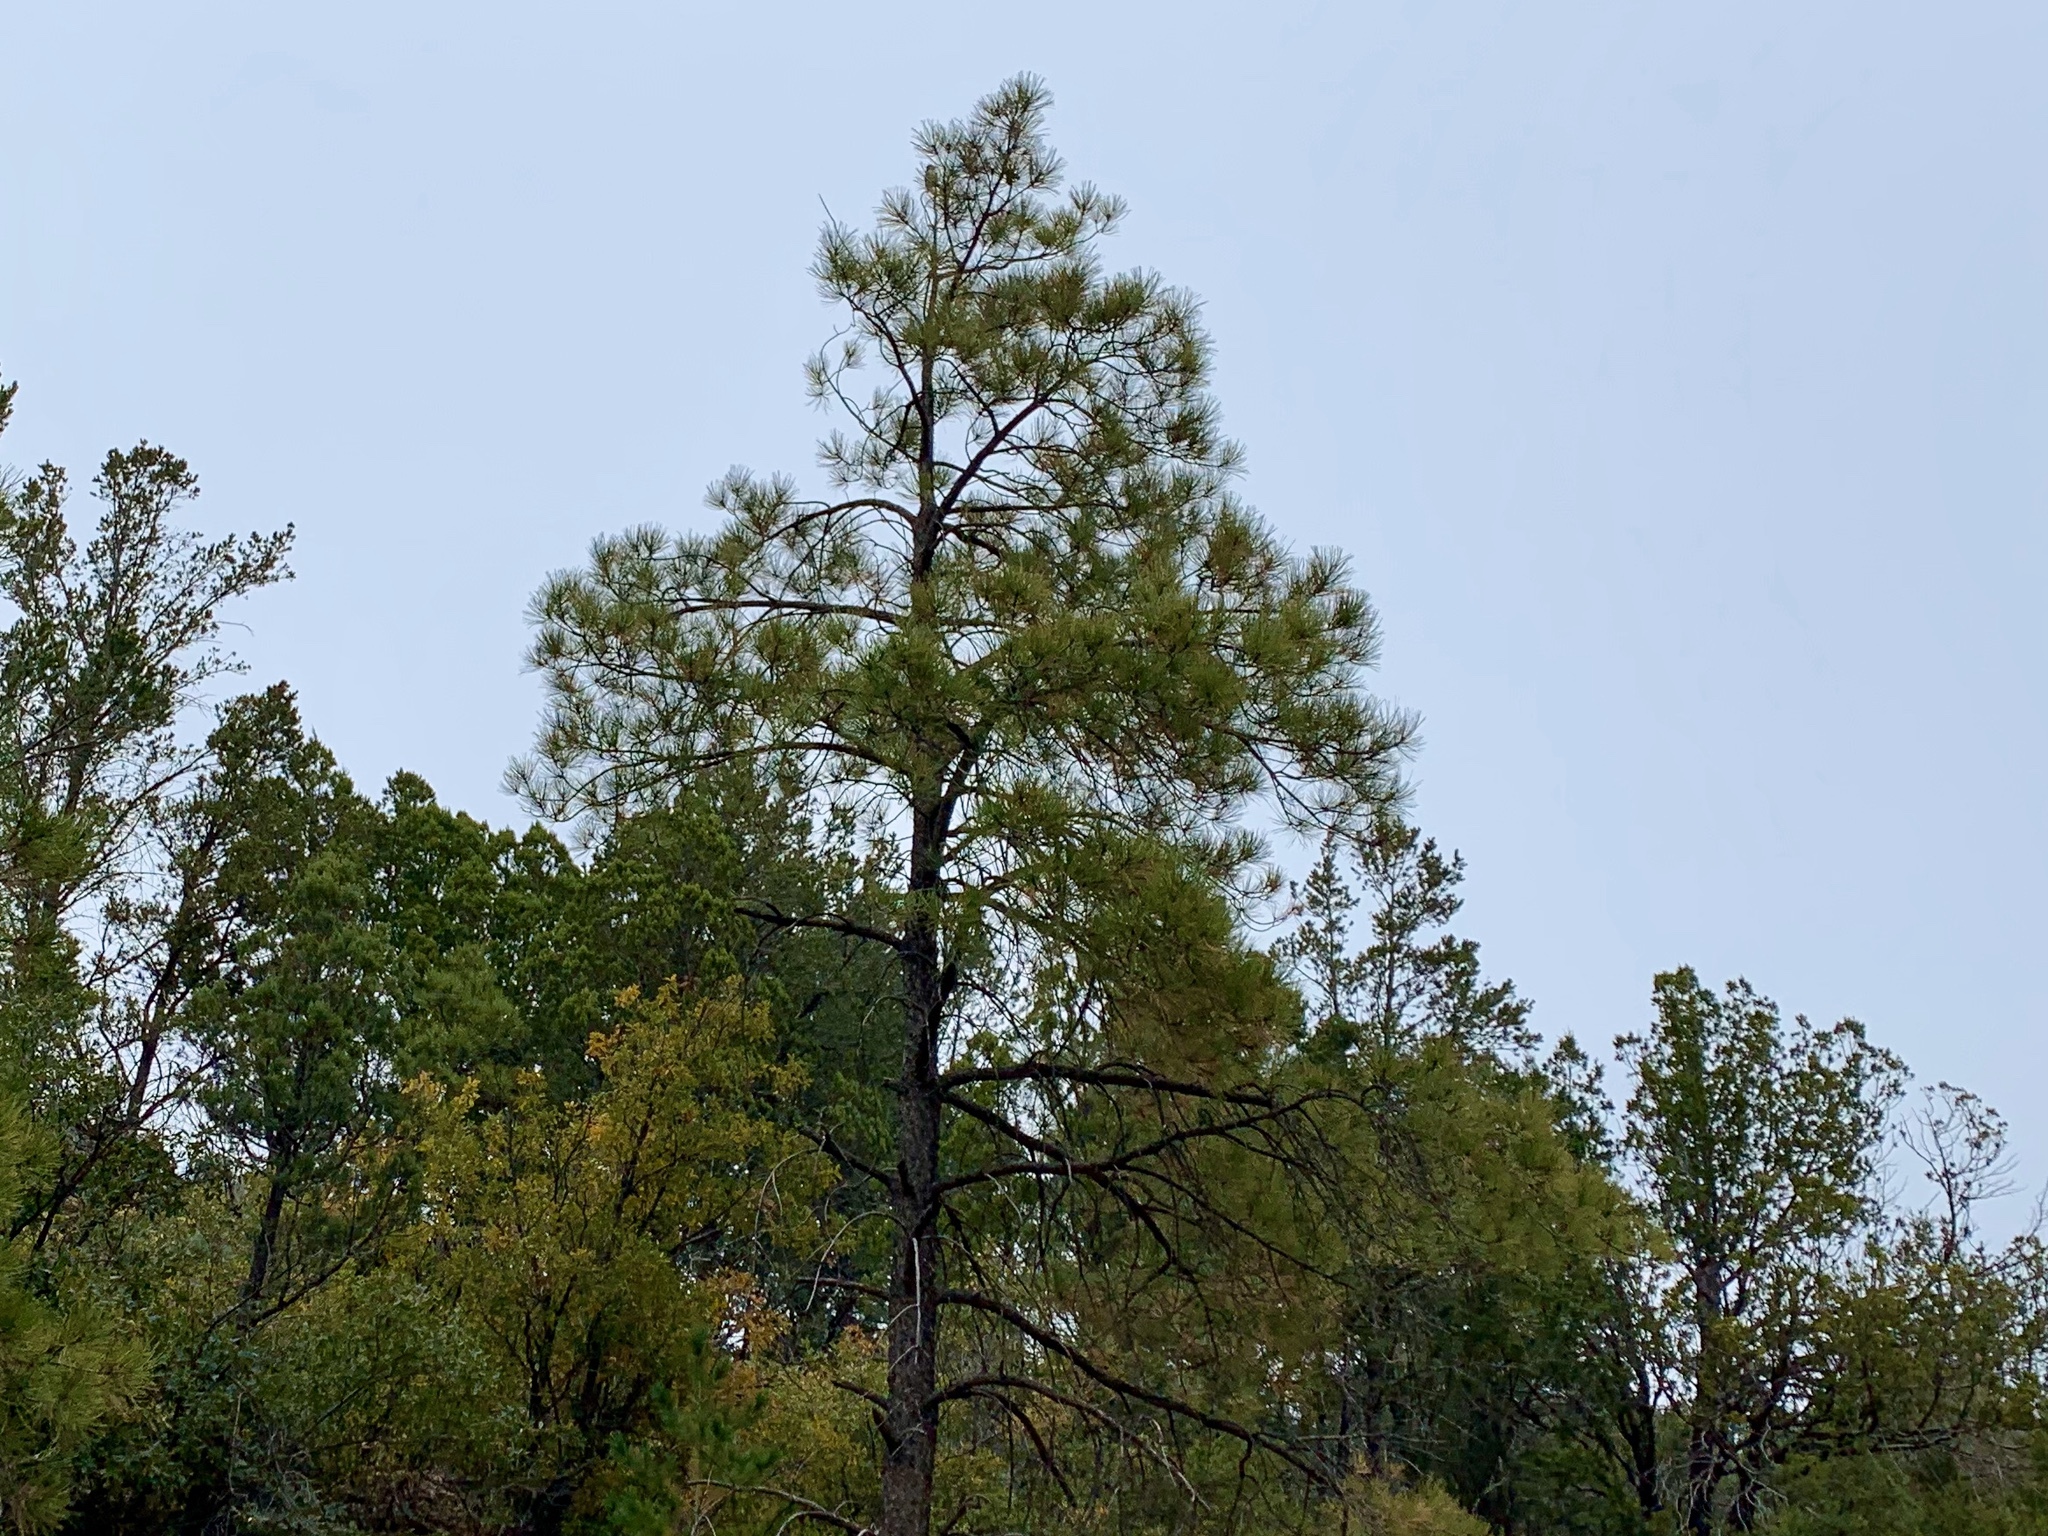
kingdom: Plantae
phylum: Tracheophyta
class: Pinopsida
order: Pinales
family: Pinaceae
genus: Pinus
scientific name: Pinus ponderosa
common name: Western yellow-pine
